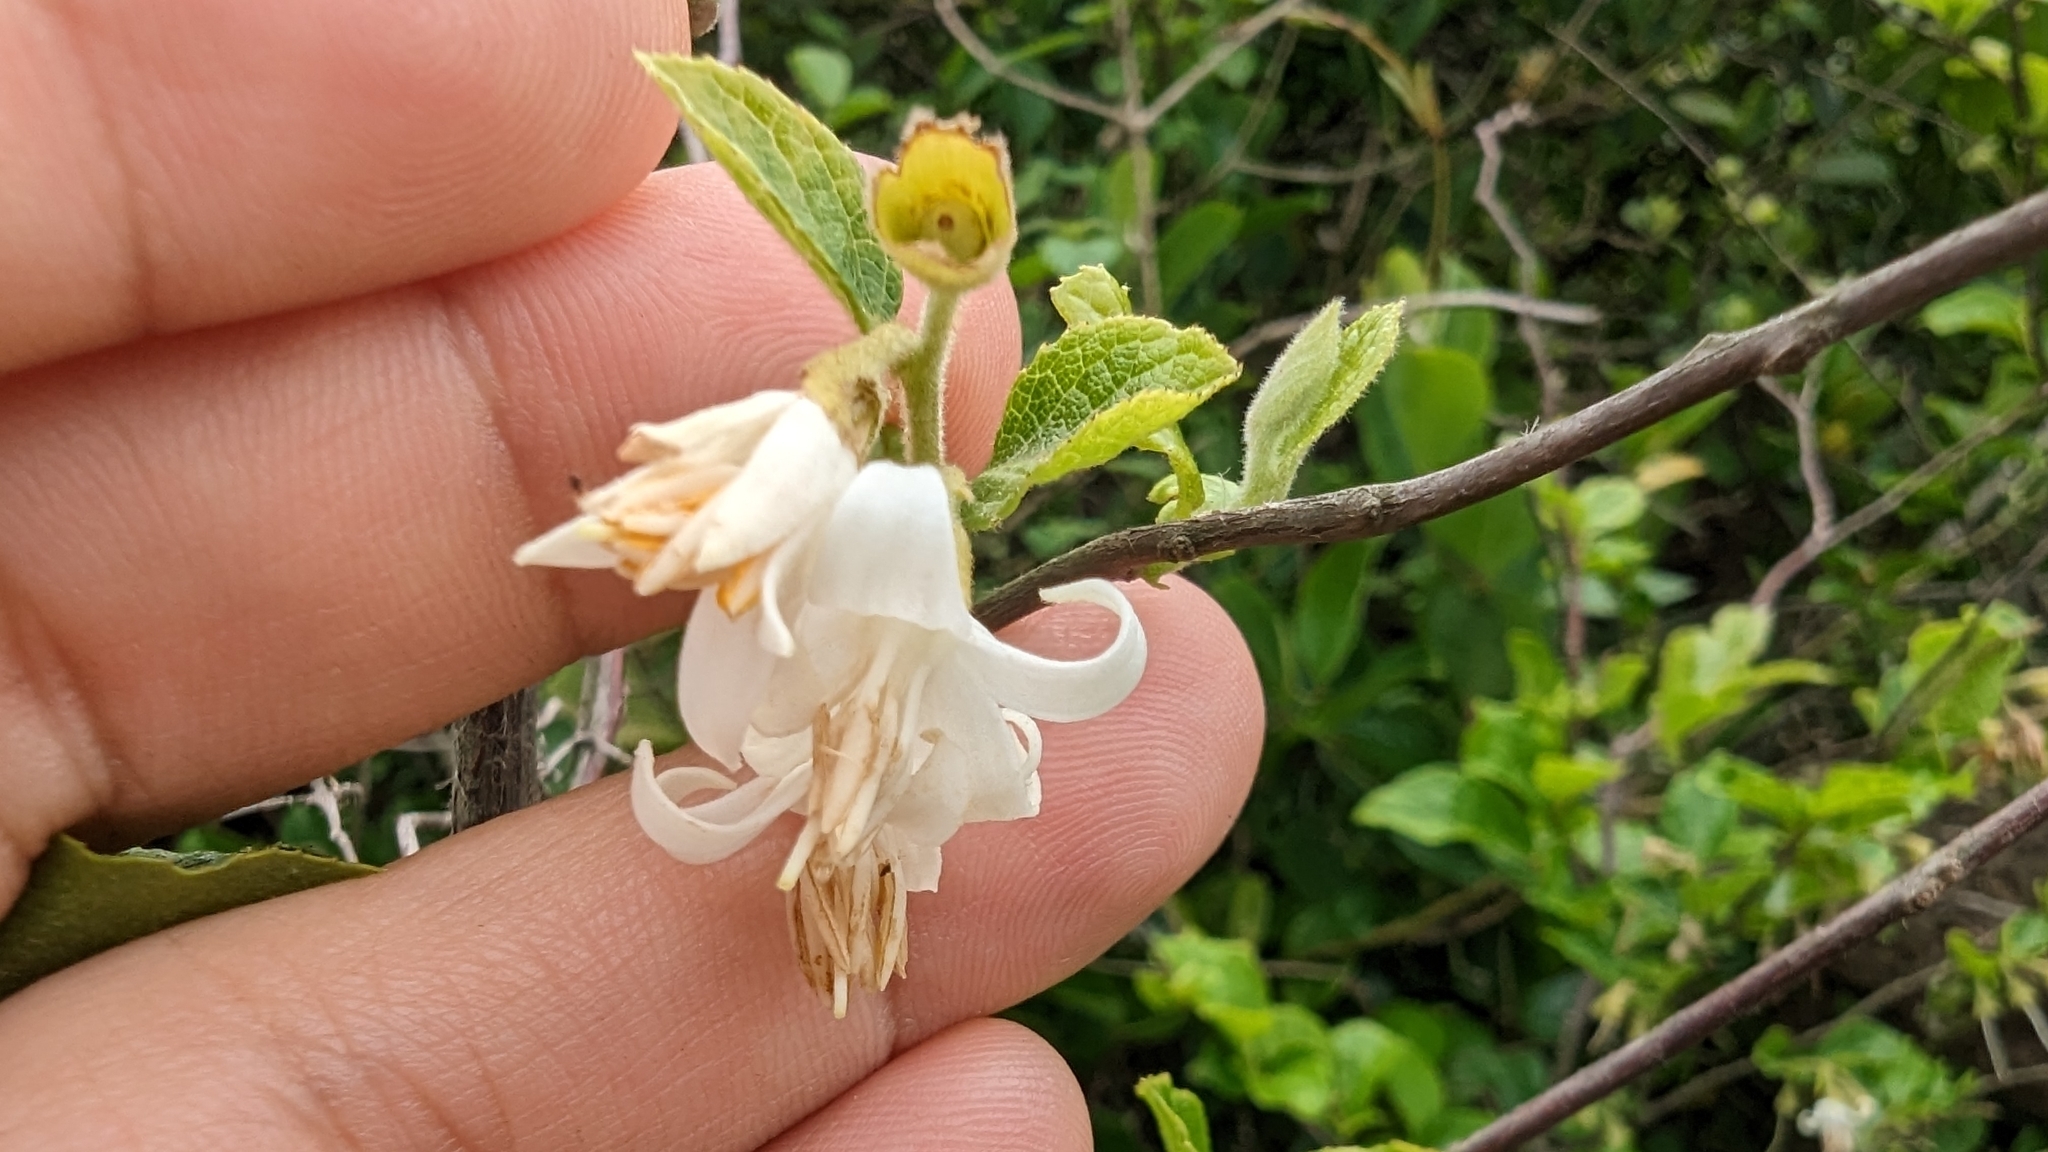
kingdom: Plantae
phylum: Tracheophyta
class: Magnoliopsida
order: Ericales
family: Styracaceae
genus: Styrax
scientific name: Styrax faberi
